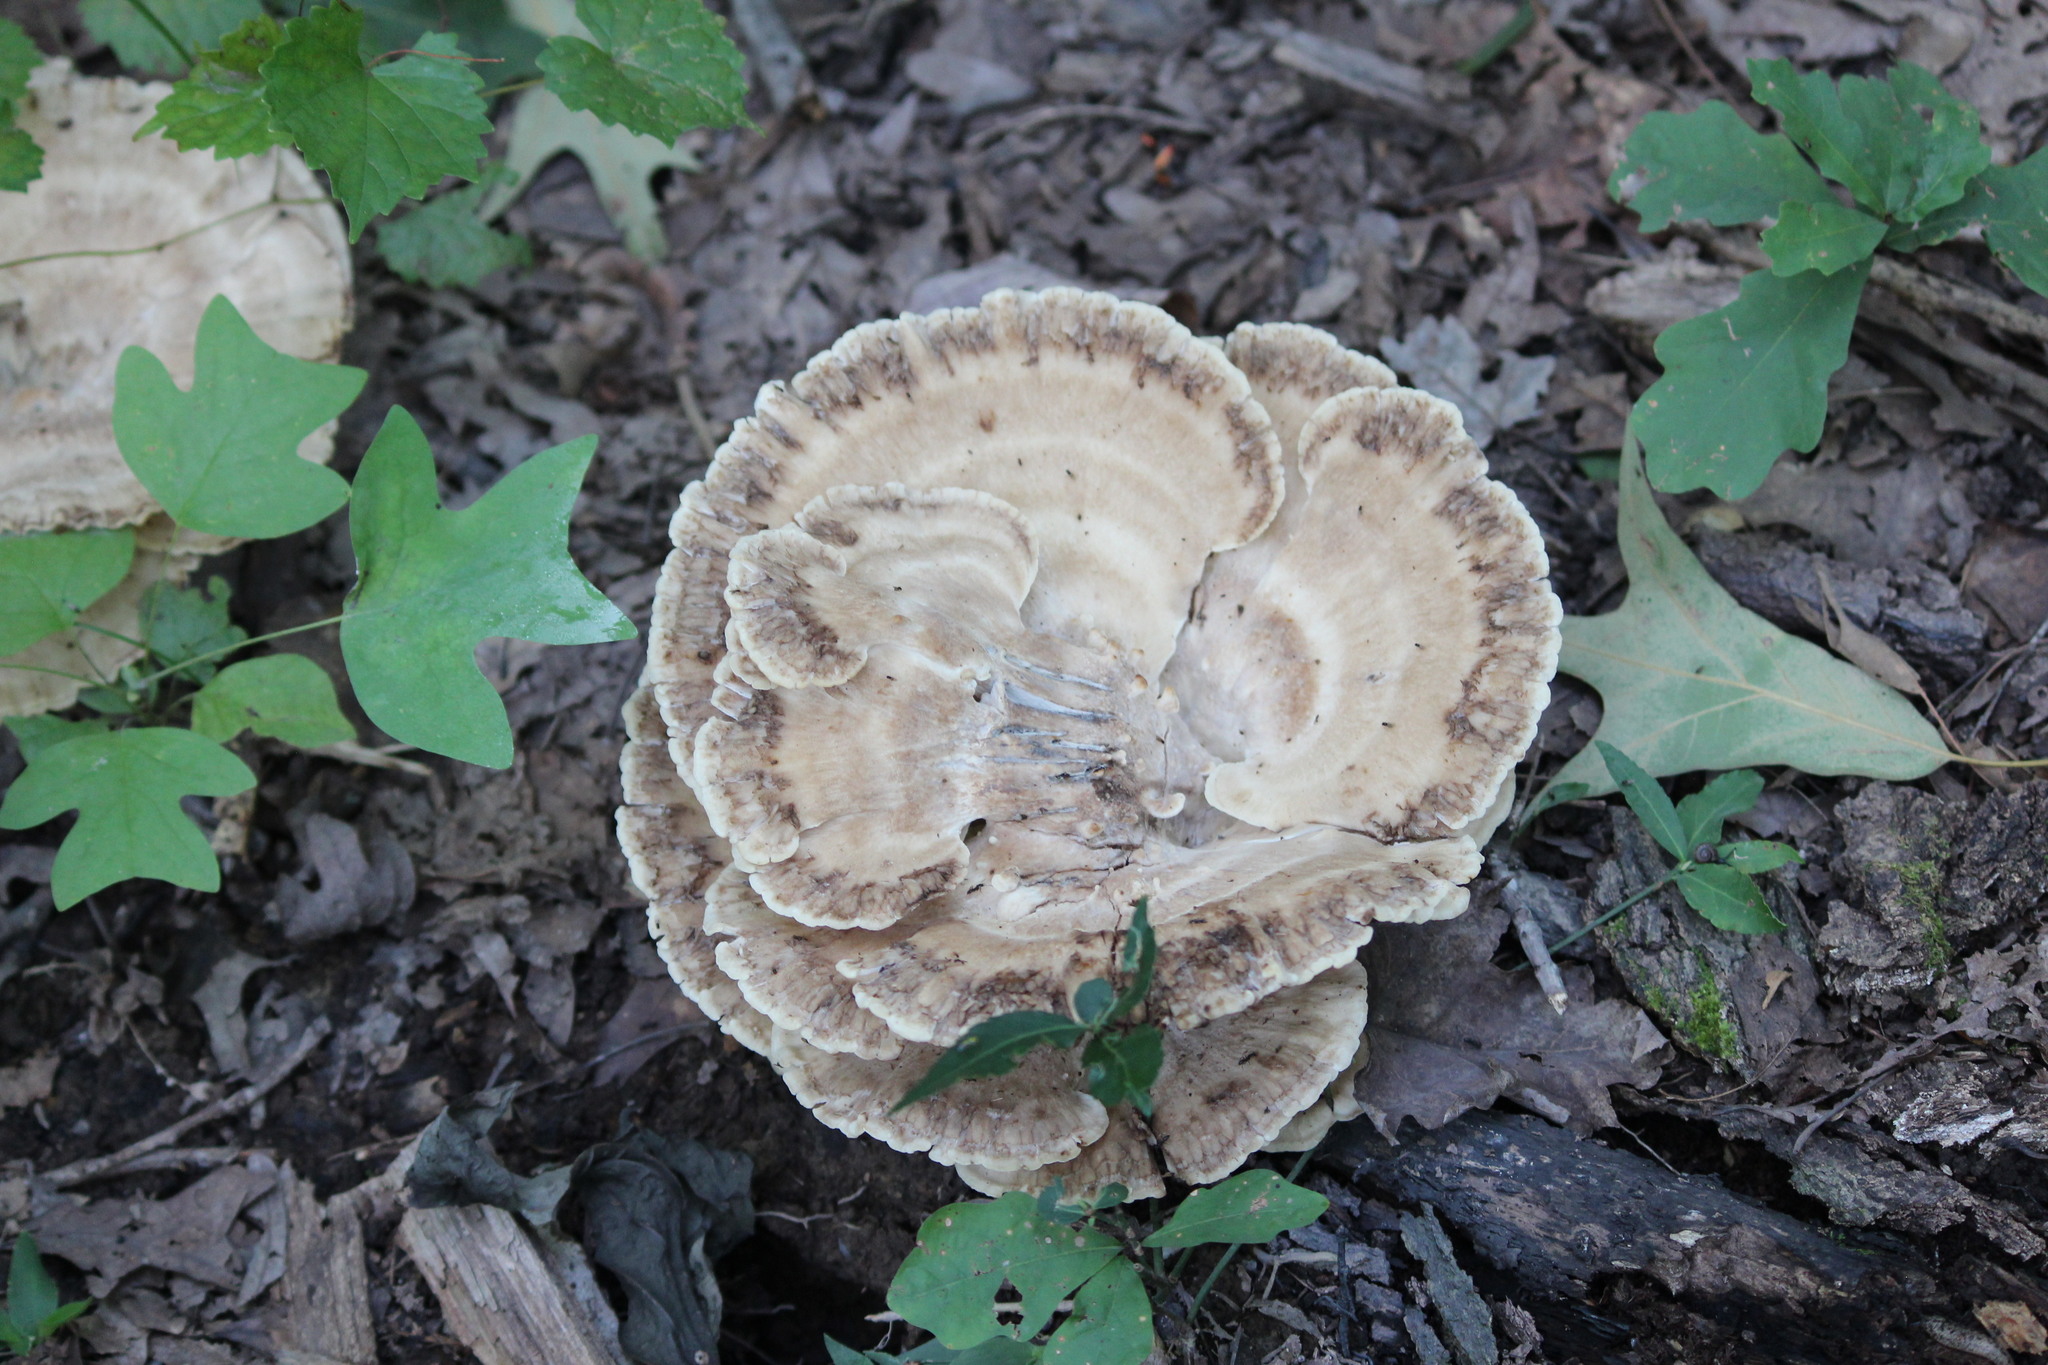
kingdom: Fungi
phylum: Basidiomycota
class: Agaricomycetes
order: Polyporales
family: Meripilaceae
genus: Meripilus
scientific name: Meripilus sumstinei
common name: Black-staining polypore
